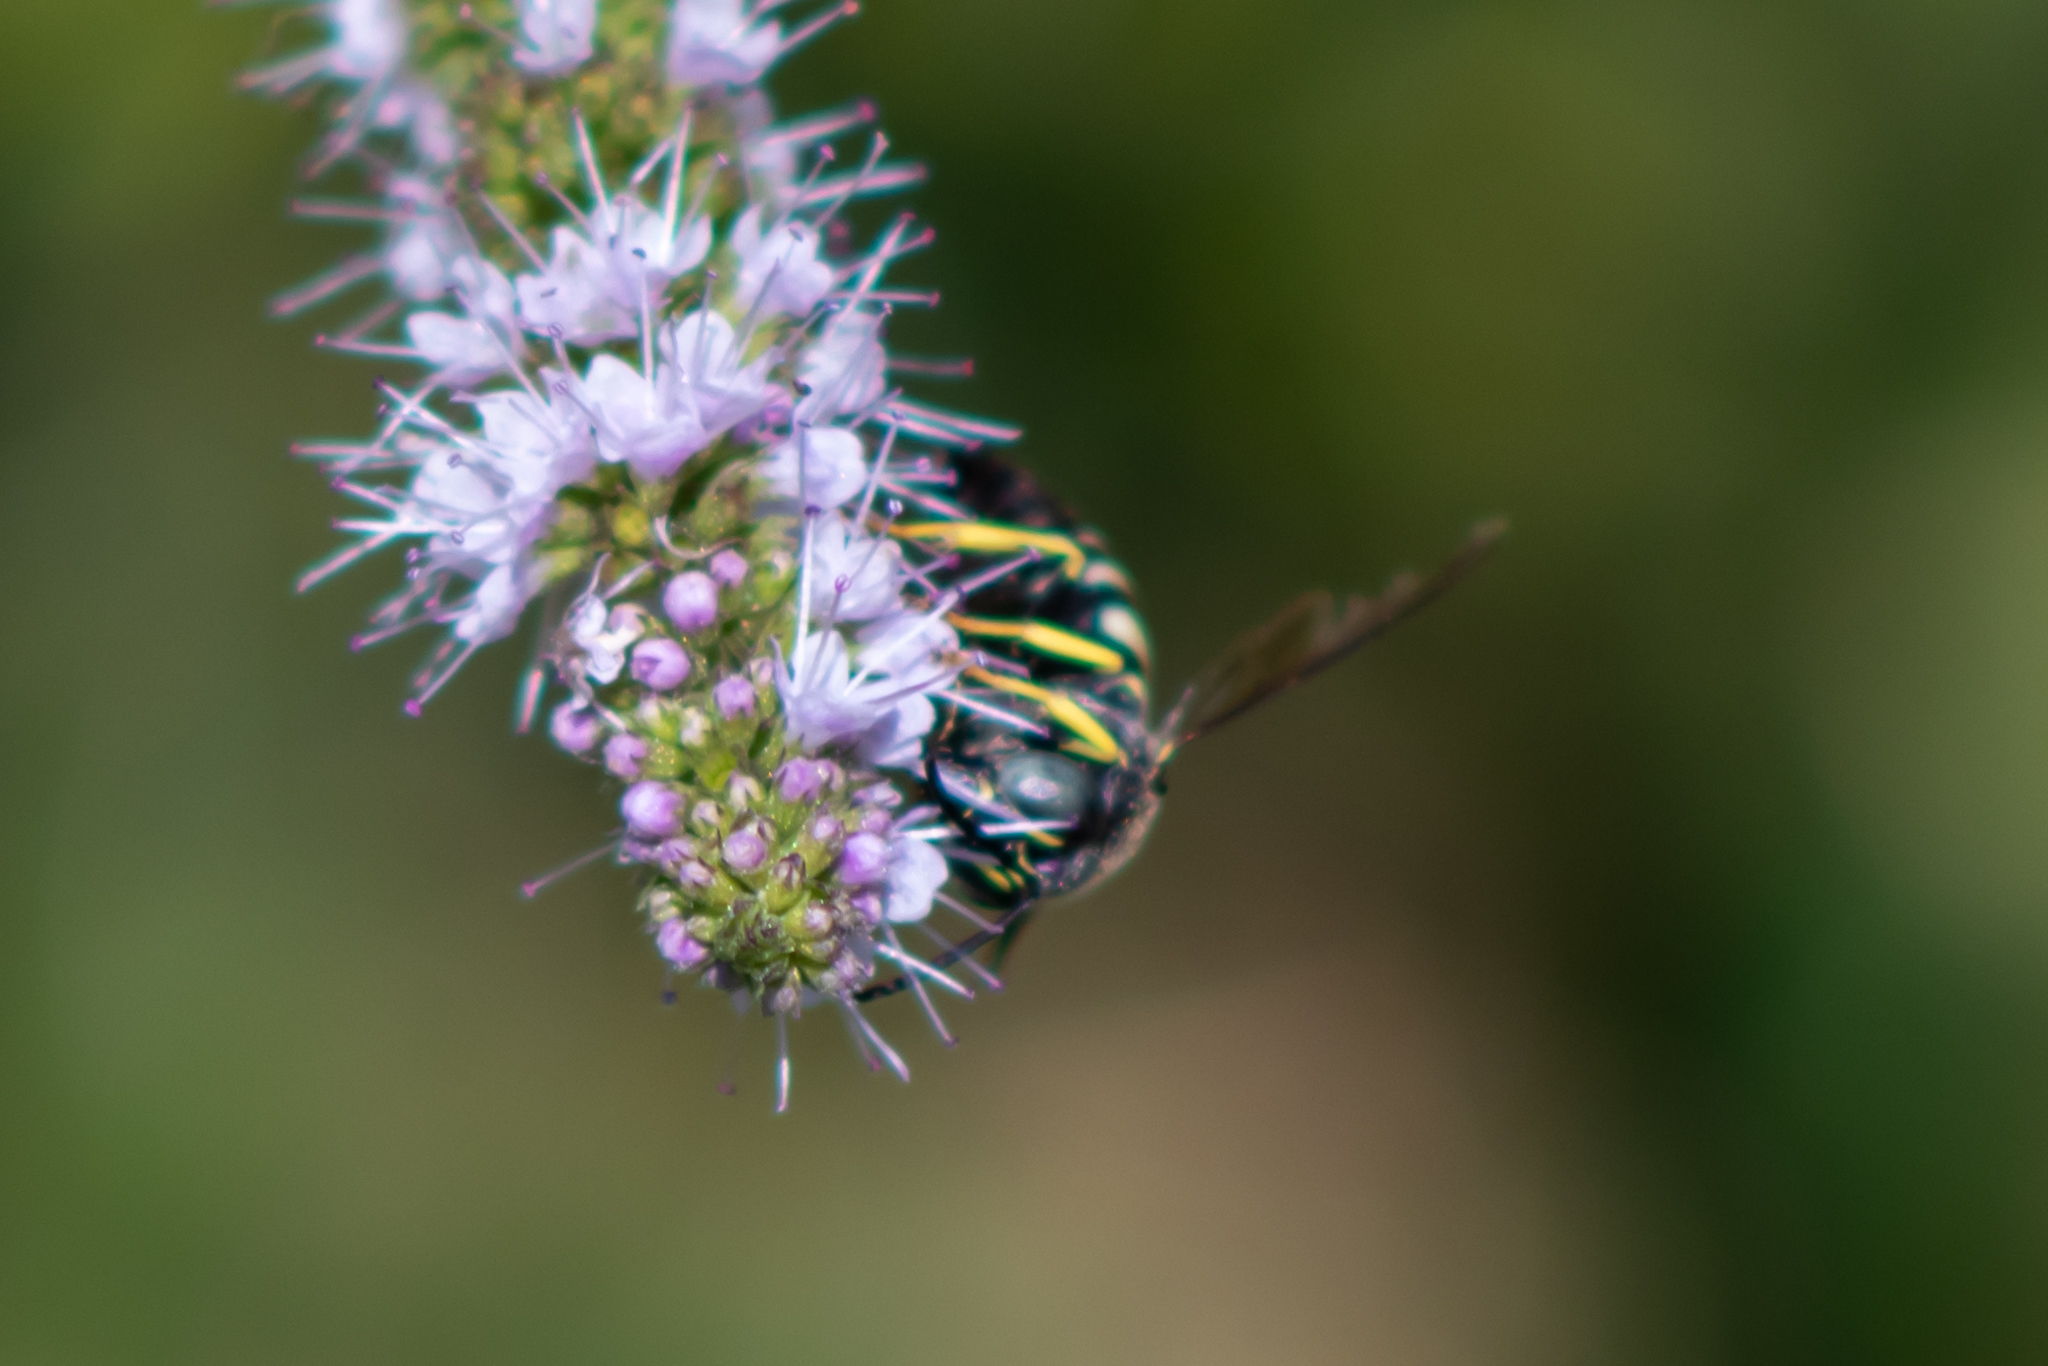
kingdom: Animalia
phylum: Arthropoda
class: Insecta
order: Hymenoptera
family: Crabronidae
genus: Bicyrtes
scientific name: Bicyrtes quadrifasciatus
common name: Four-banded stink bug hunter wasp
